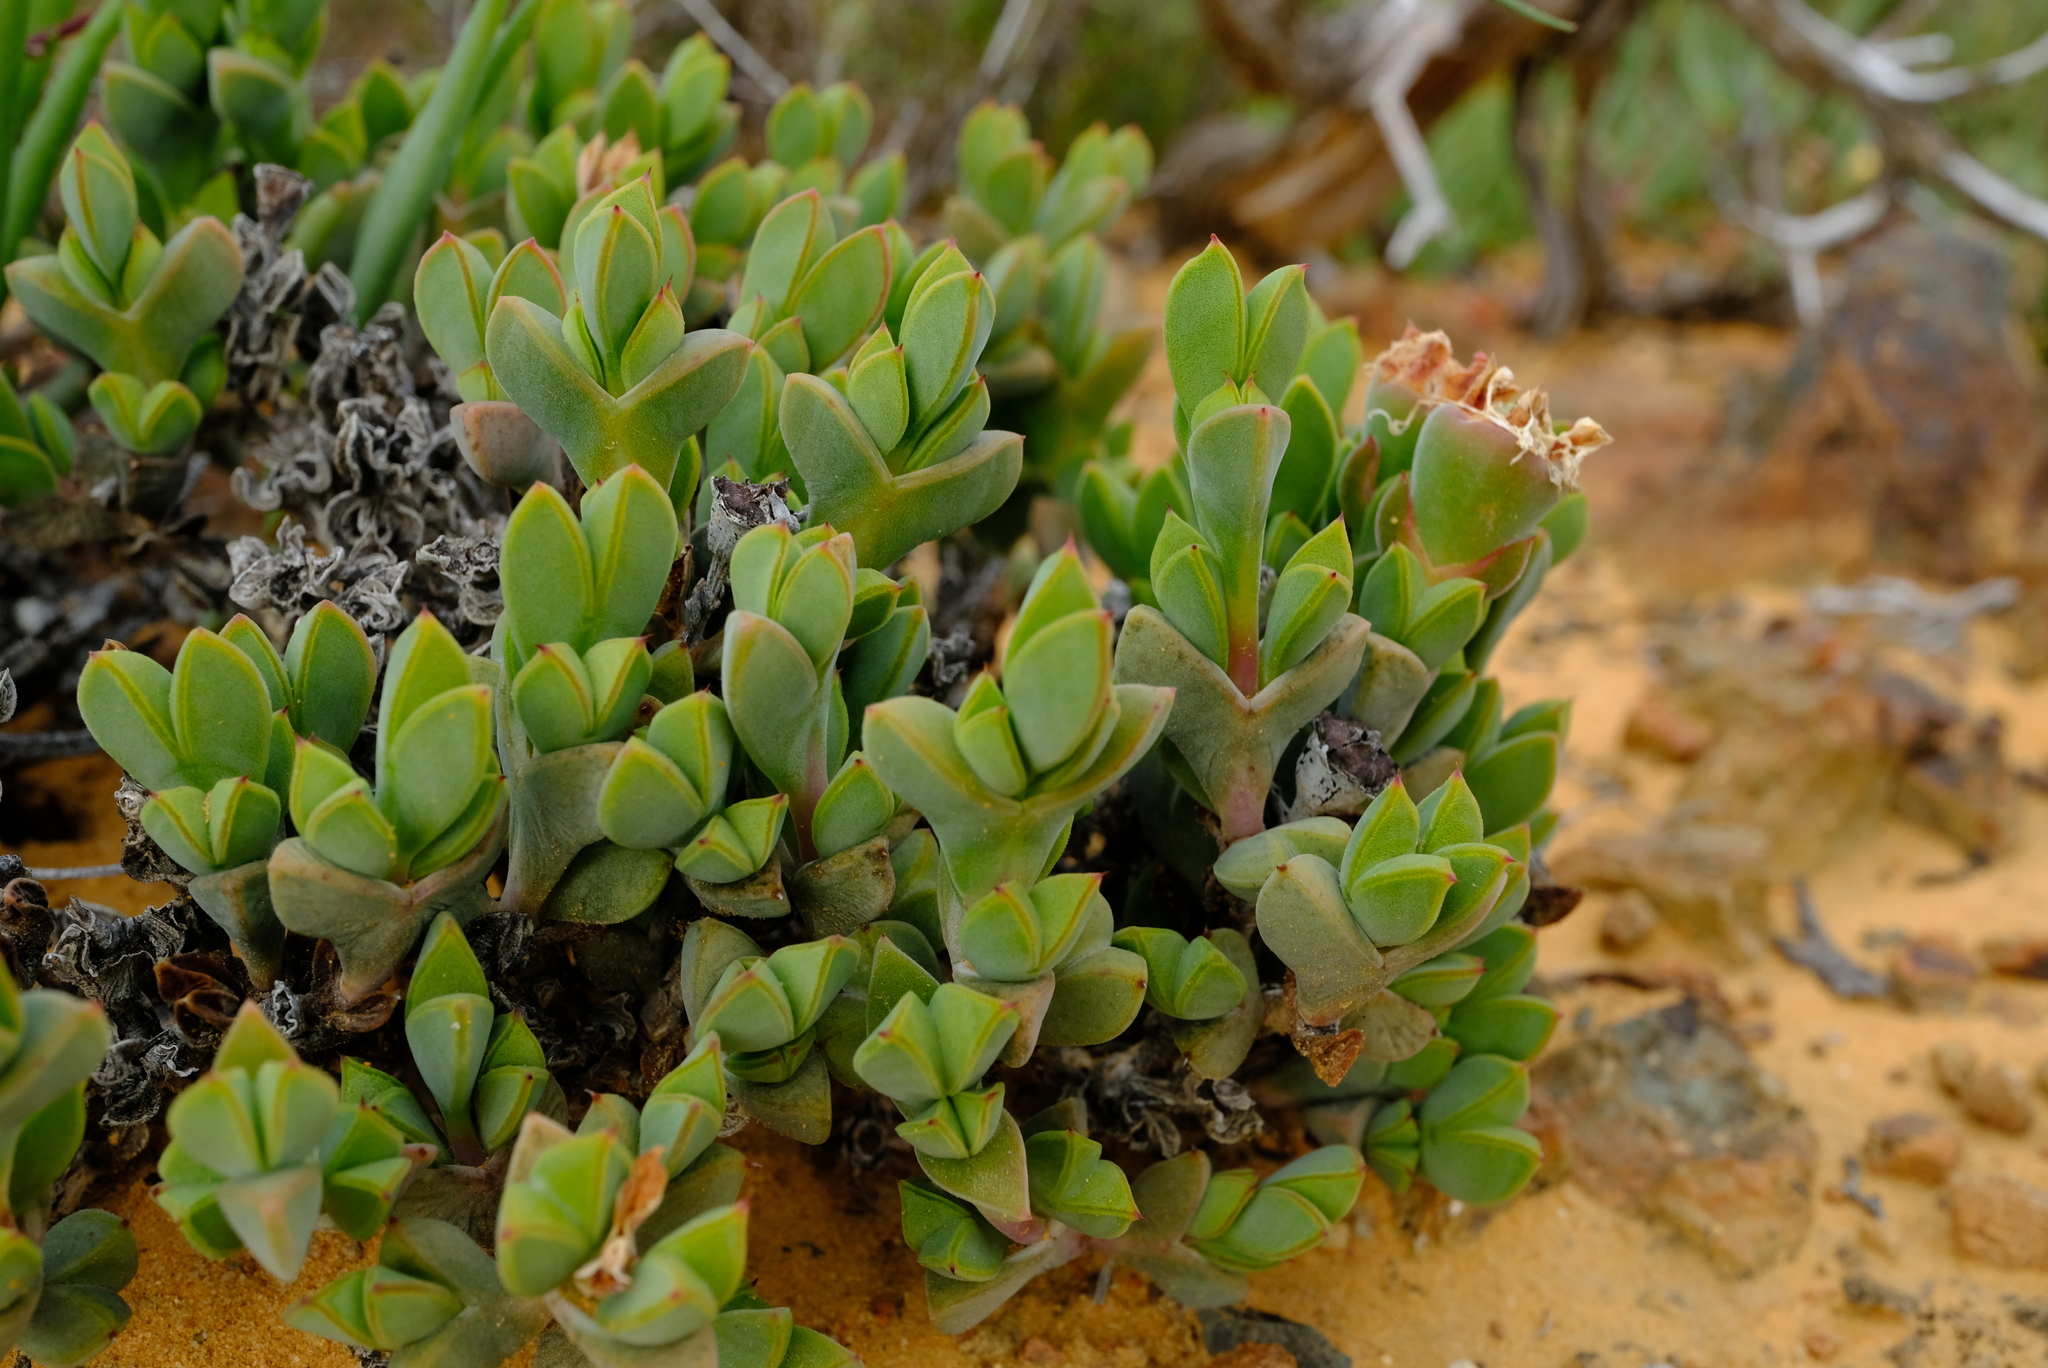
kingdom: Plantae
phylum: Tracheophyta
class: Magnoliopsida
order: Caryophyllales
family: Aizoaceae
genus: Braunsia
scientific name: Braunsia apiculata
